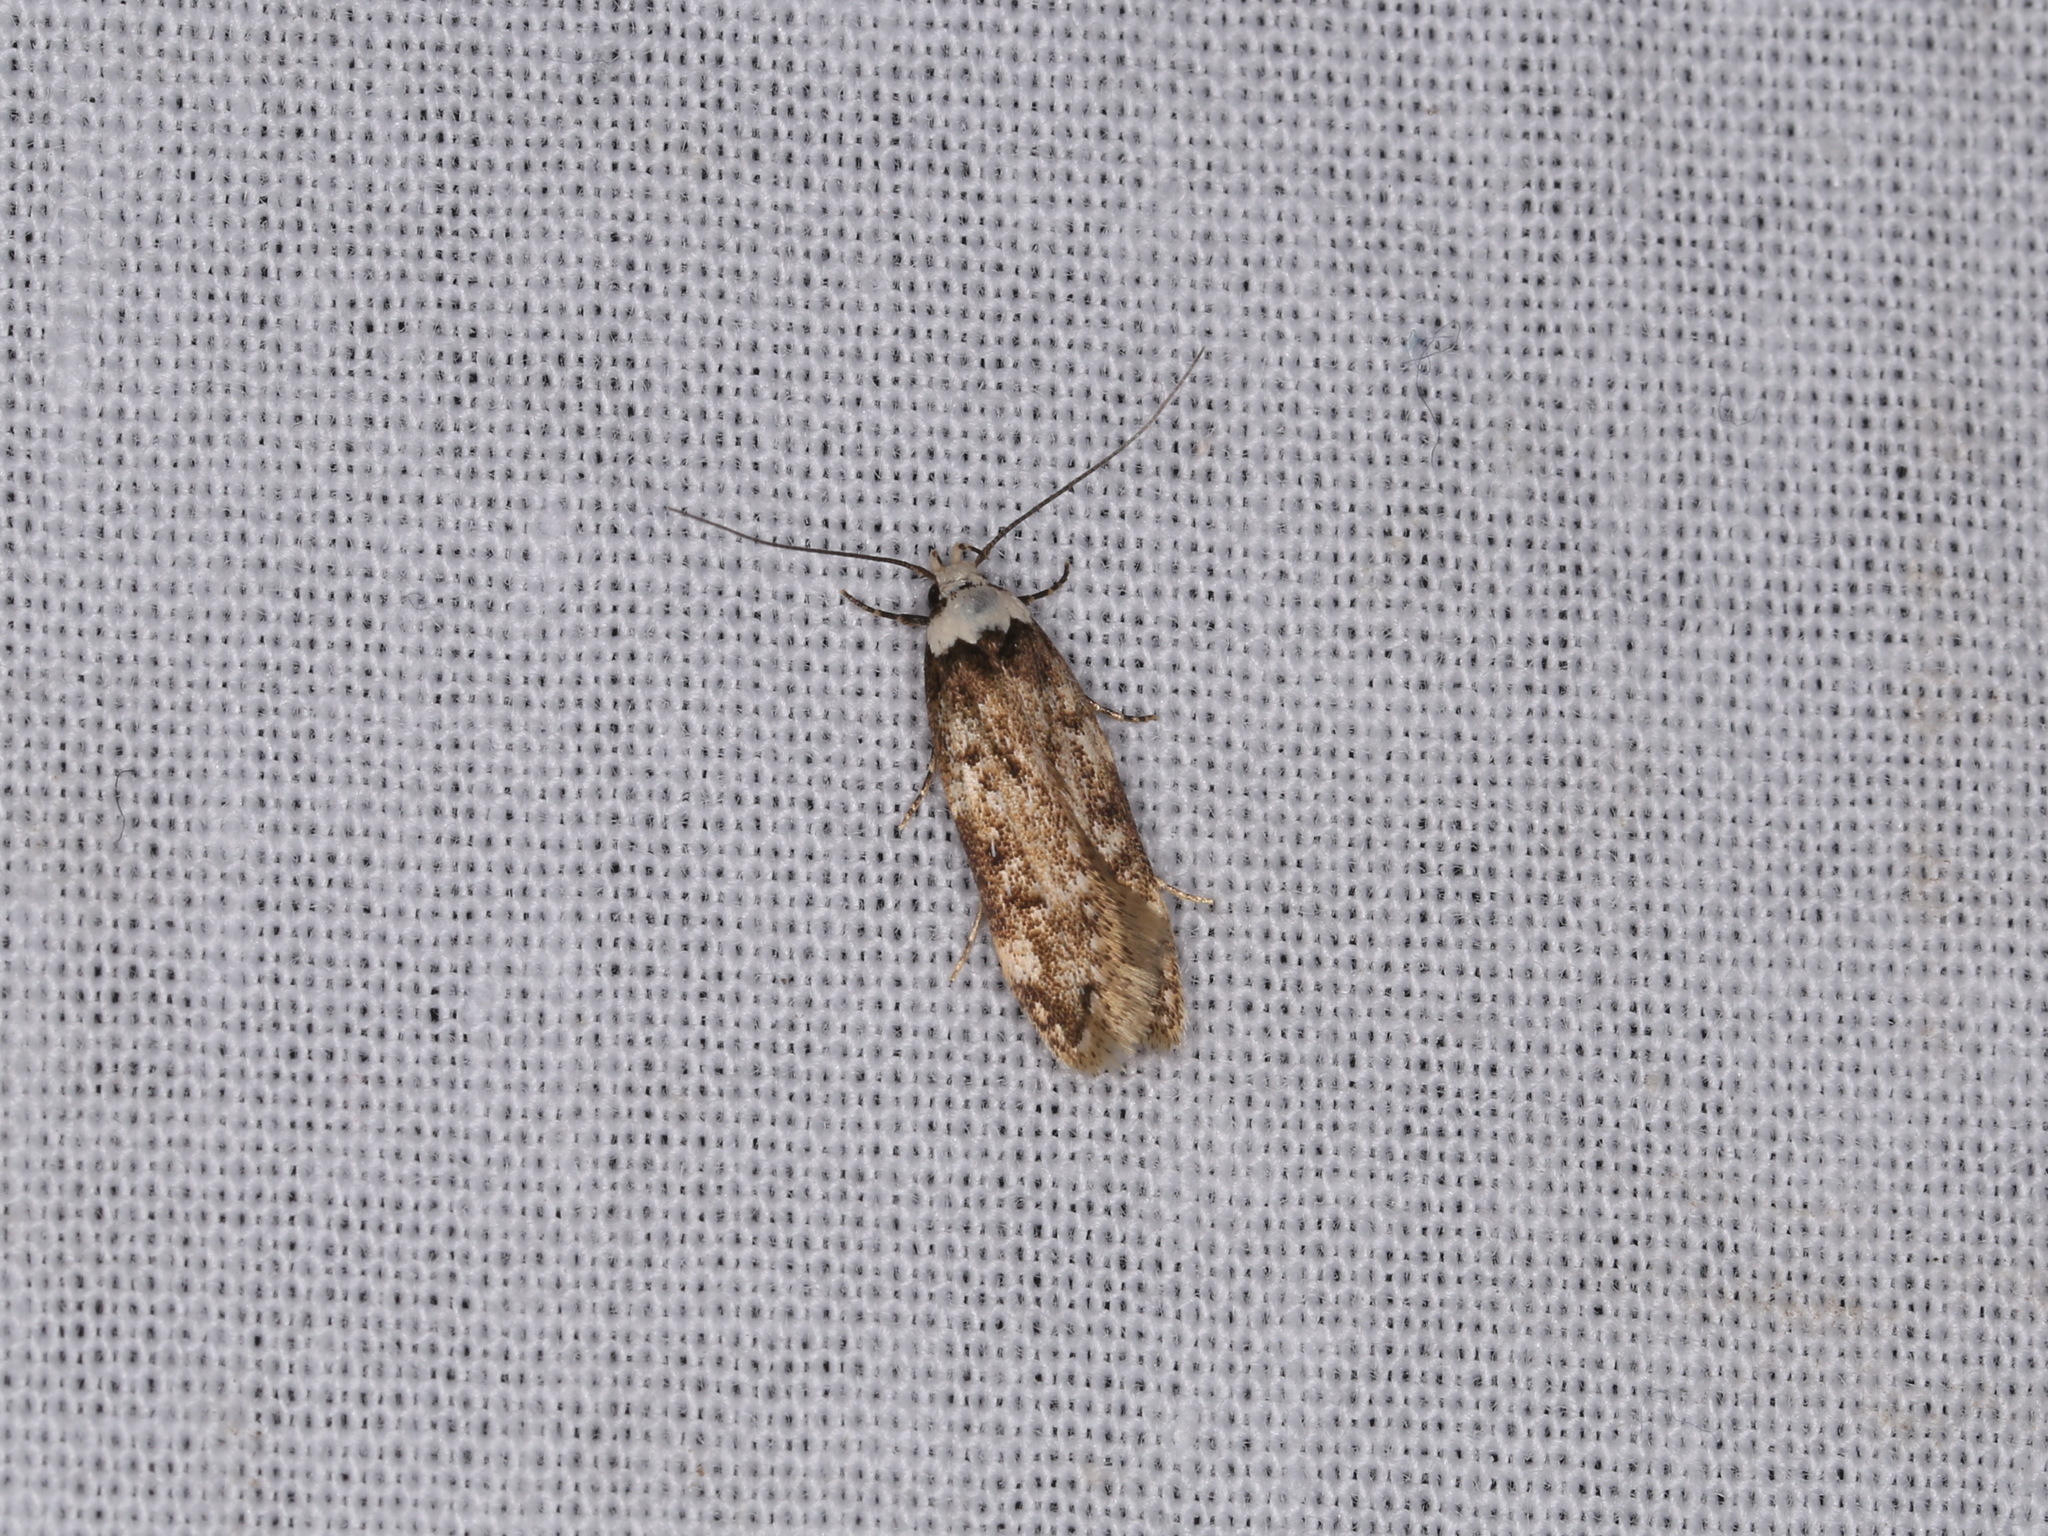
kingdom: Animalia
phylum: Arthropoda
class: Insecta
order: Lepidoptera
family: Oecophoridae
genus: Endrosis
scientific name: Endrosis sarcitrella
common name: White-shouldered house moth
